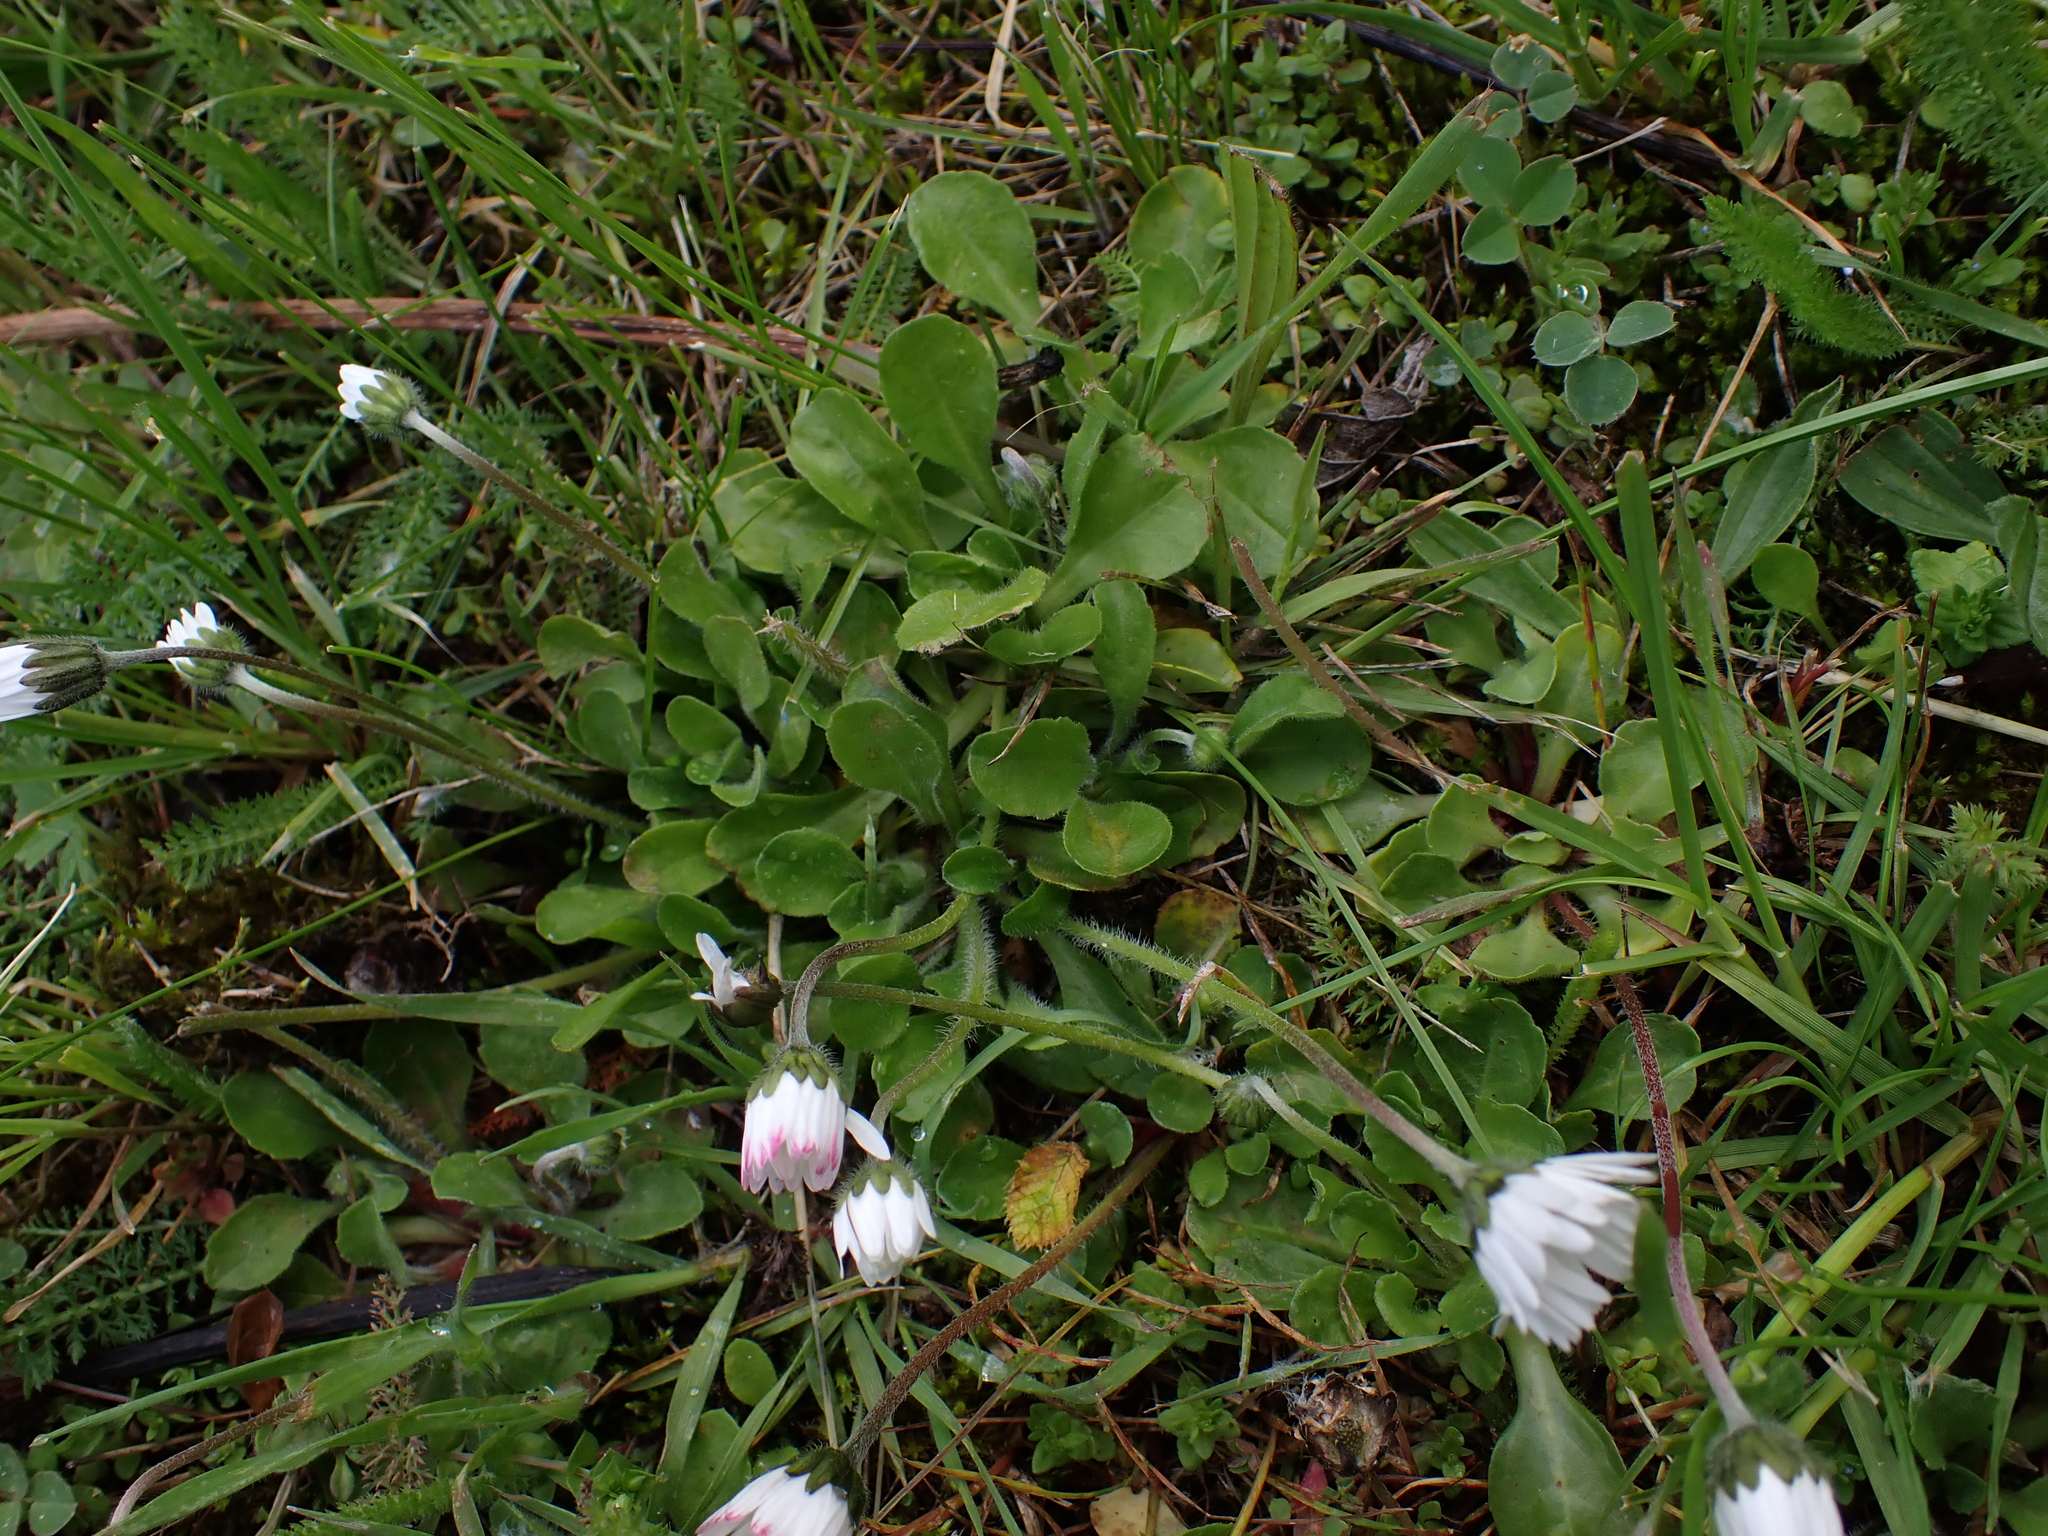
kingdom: Plantae
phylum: Tracheophyta
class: Magnoliopsida
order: Asterales
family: Asteraceae
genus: Bellis
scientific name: Bellis perennis
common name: Lawndaisy
